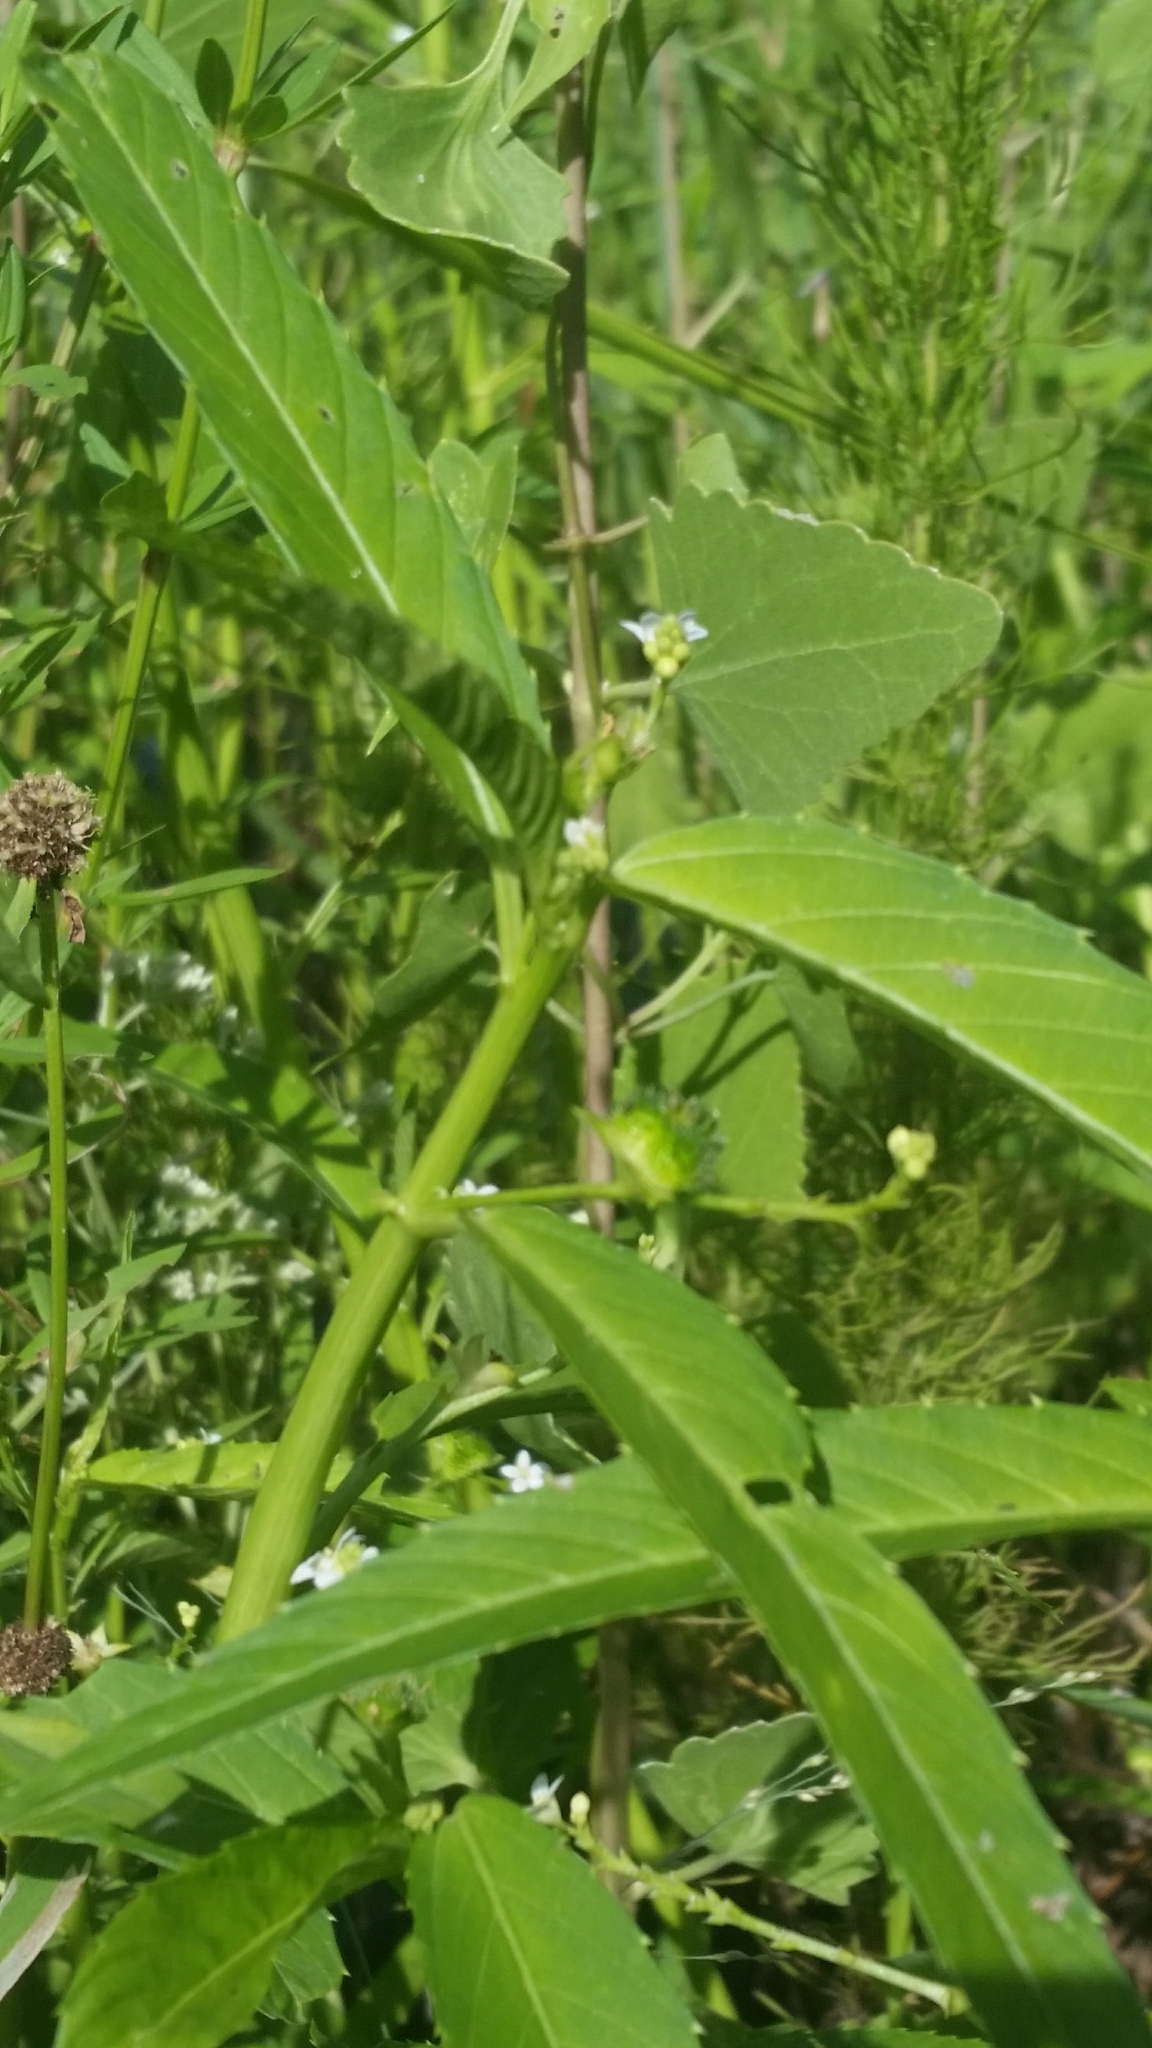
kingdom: Plantae
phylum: Tracheophyta
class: Magnoliopsida
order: Malpighiales
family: Euphorbiaceae
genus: Caperonia
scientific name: Caperonia castaneifolia
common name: Chestnutleaf false croton
